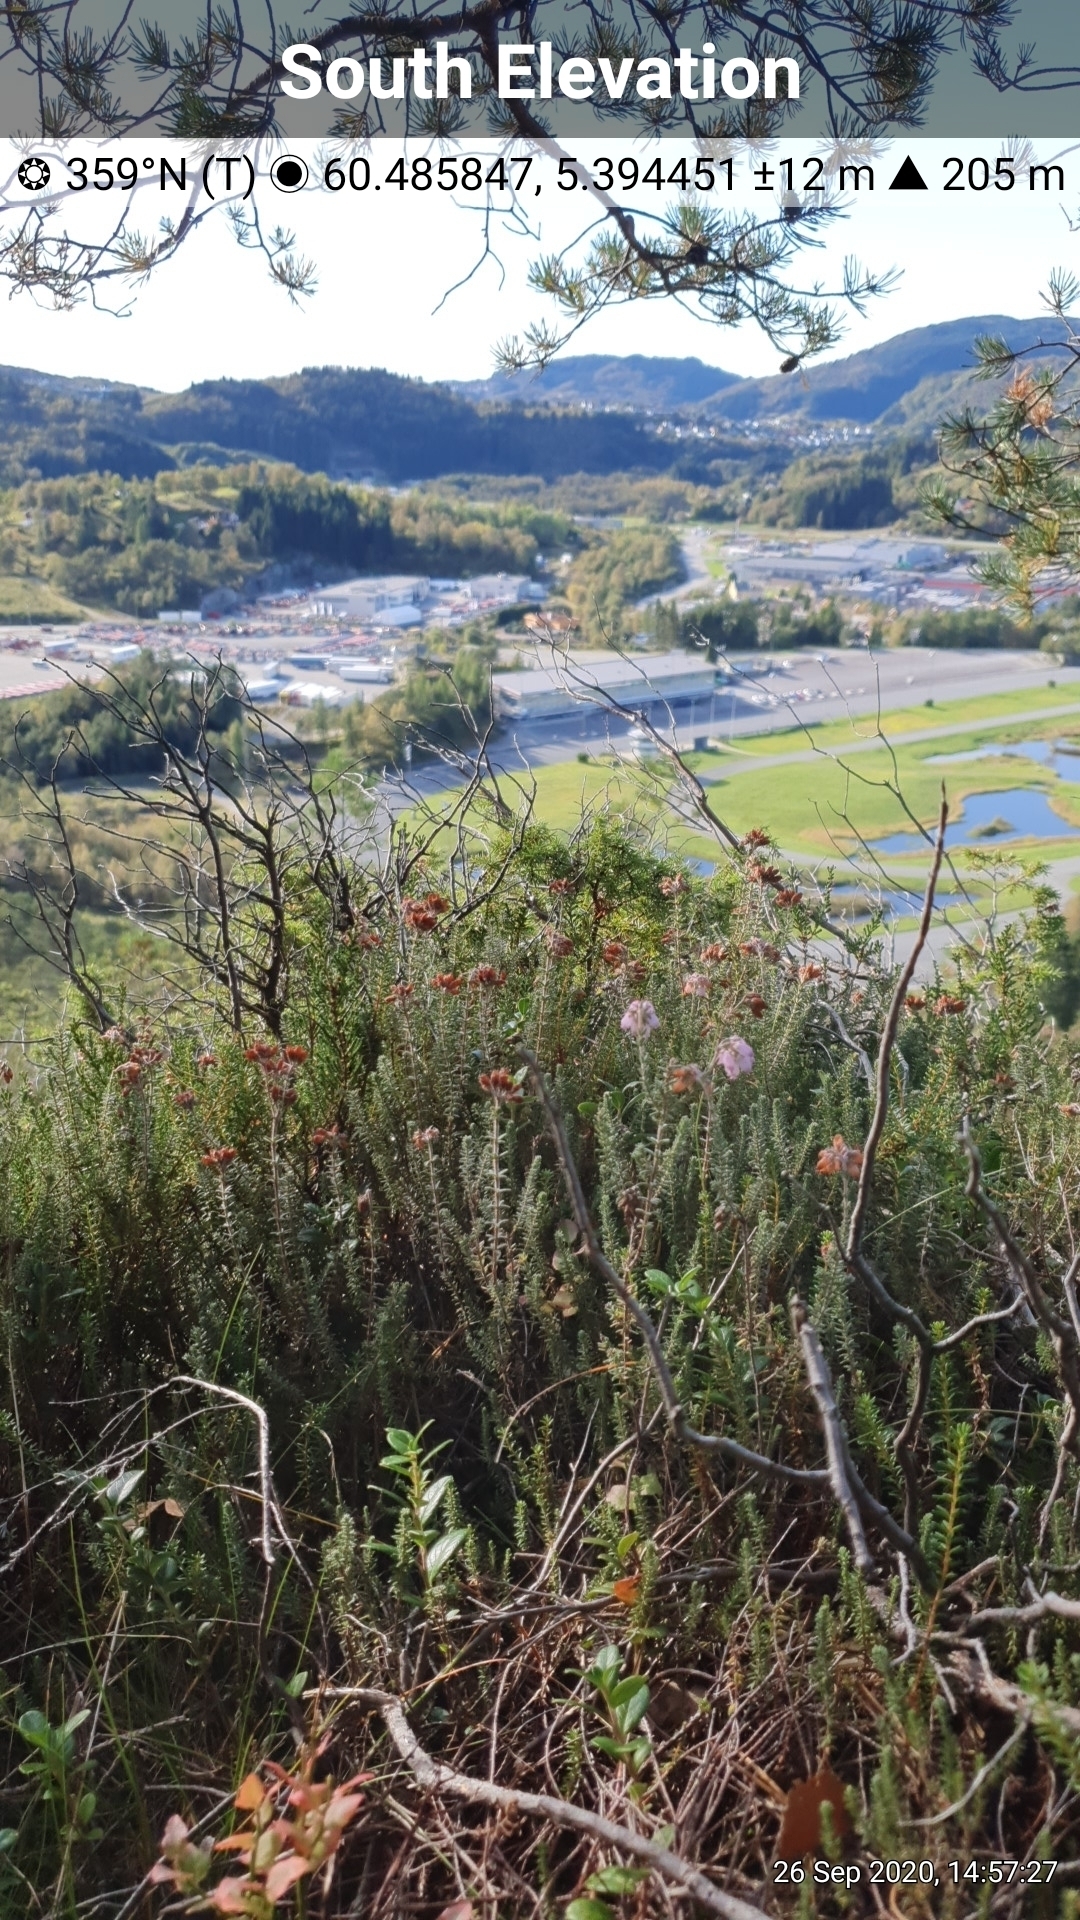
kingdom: Plantae
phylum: Tracheophyta
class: Magnoliopsida
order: Ericales
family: Ericaceae
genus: Erica
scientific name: Erica tetralix
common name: Cross-leaved heath
